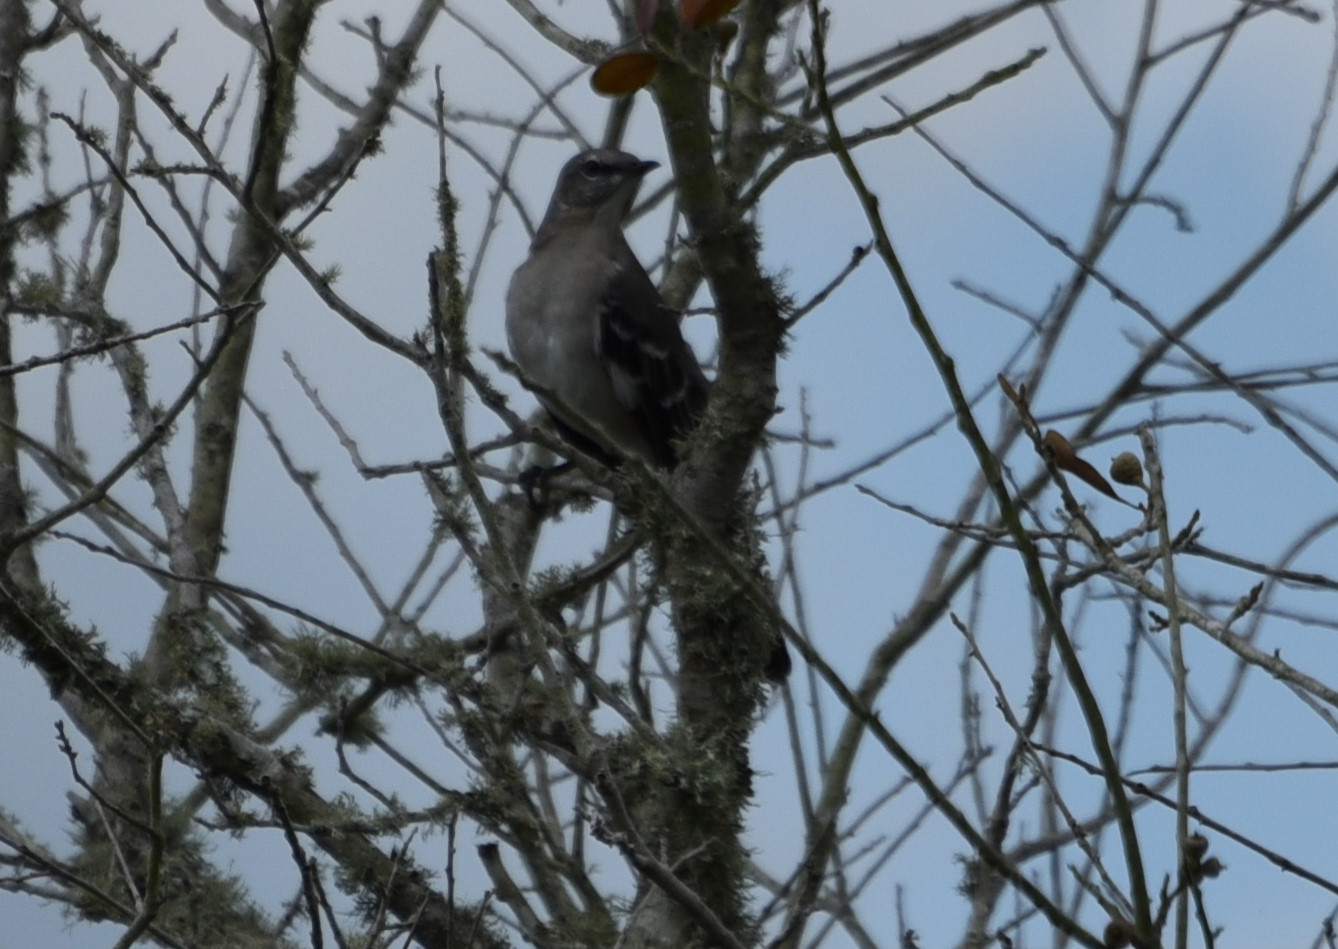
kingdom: Animalia
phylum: Chordata
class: Aves
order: Passeriformes
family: Mimidae
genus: Mimus
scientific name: Mimus polyglottos
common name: Northern mockingbird
